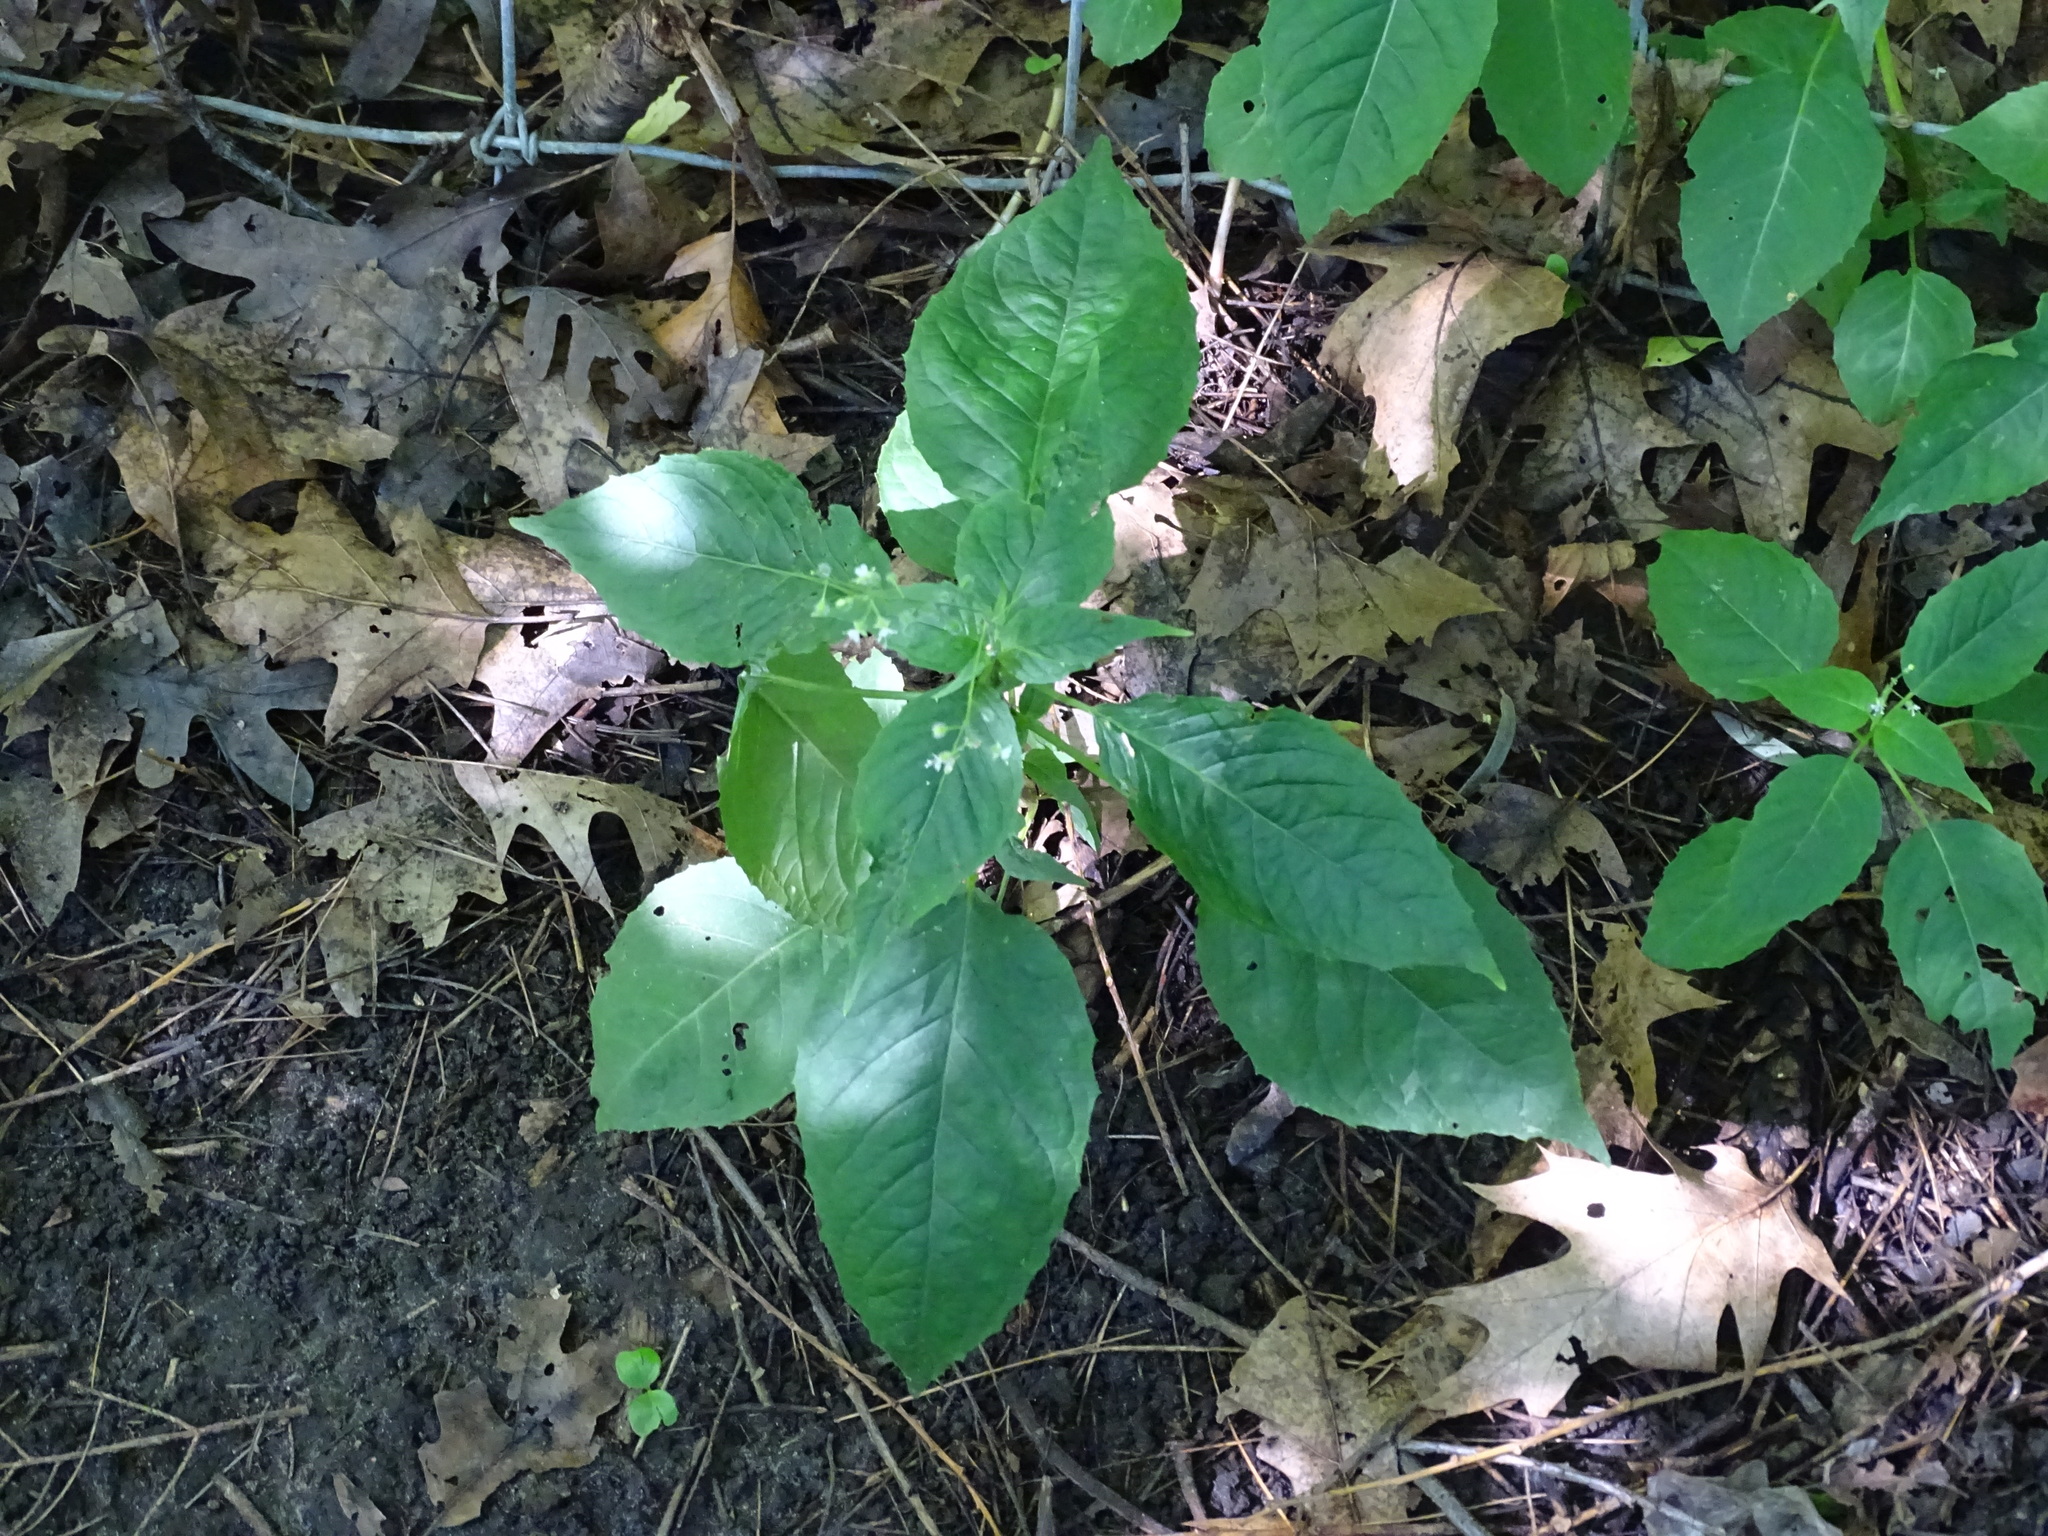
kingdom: Plantae
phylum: Tracheophyta
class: Magnoliopsida
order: Myrtales
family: Onagraceae
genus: Circaea
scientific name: Circaea canadensis
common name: Broad-leaved enchanter's nightshade
